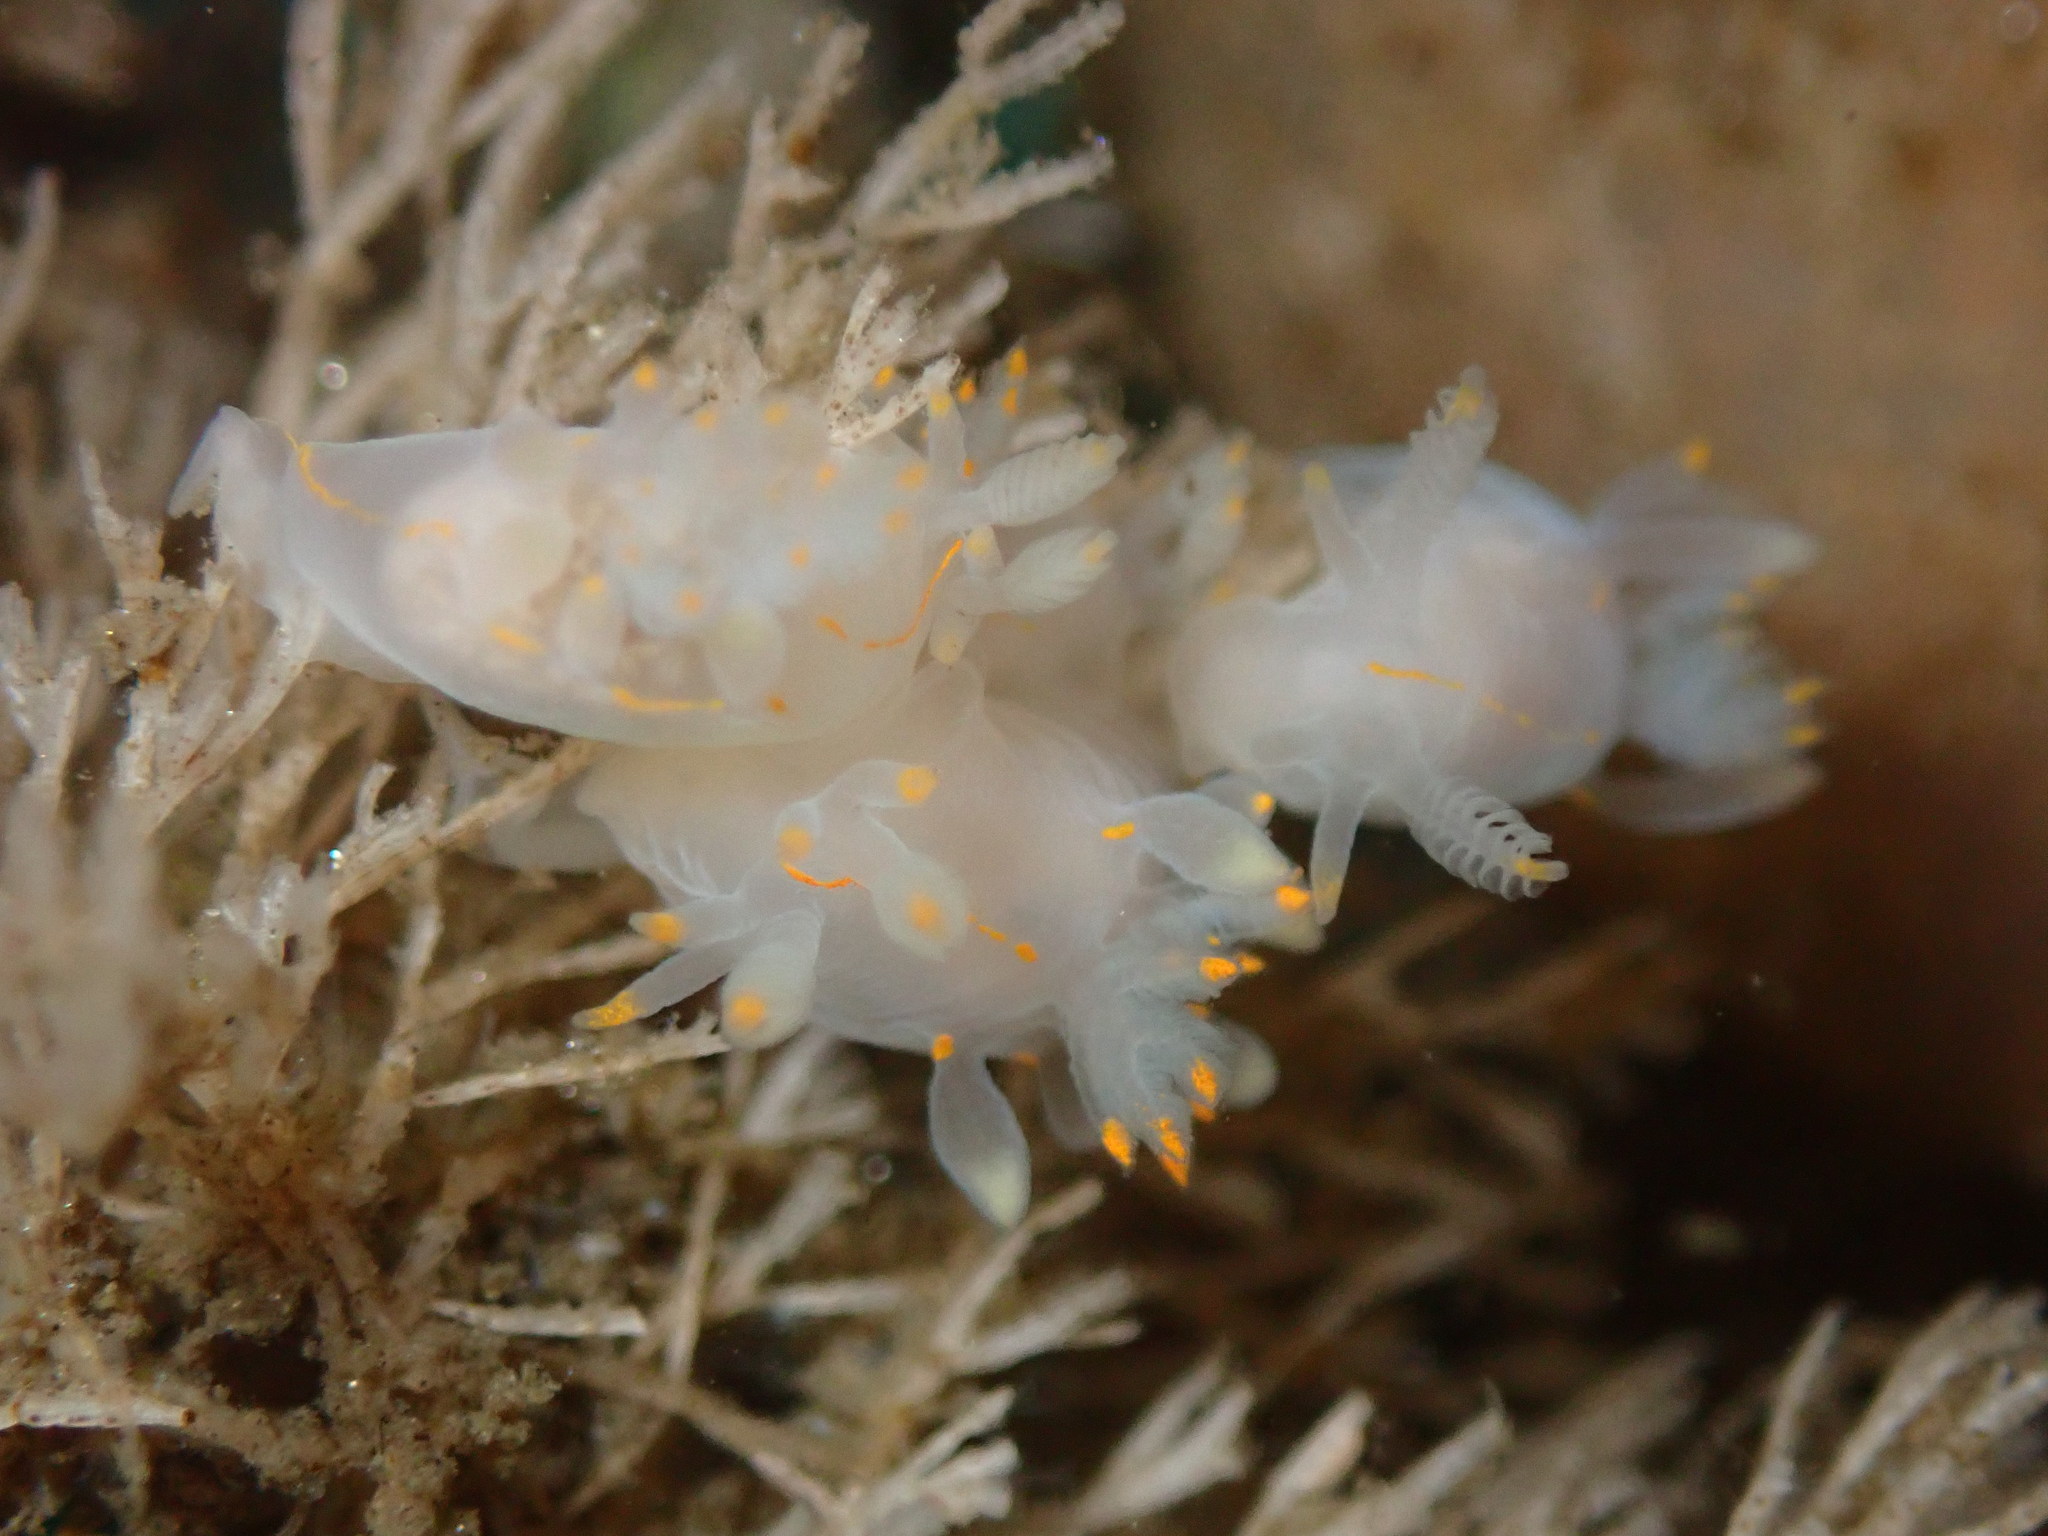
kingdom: Animalia
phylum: Mollusca
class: Gastropoda
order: Nudibranchia
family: Goniodorididae
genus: Ancula
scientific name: Ancula pacifica
